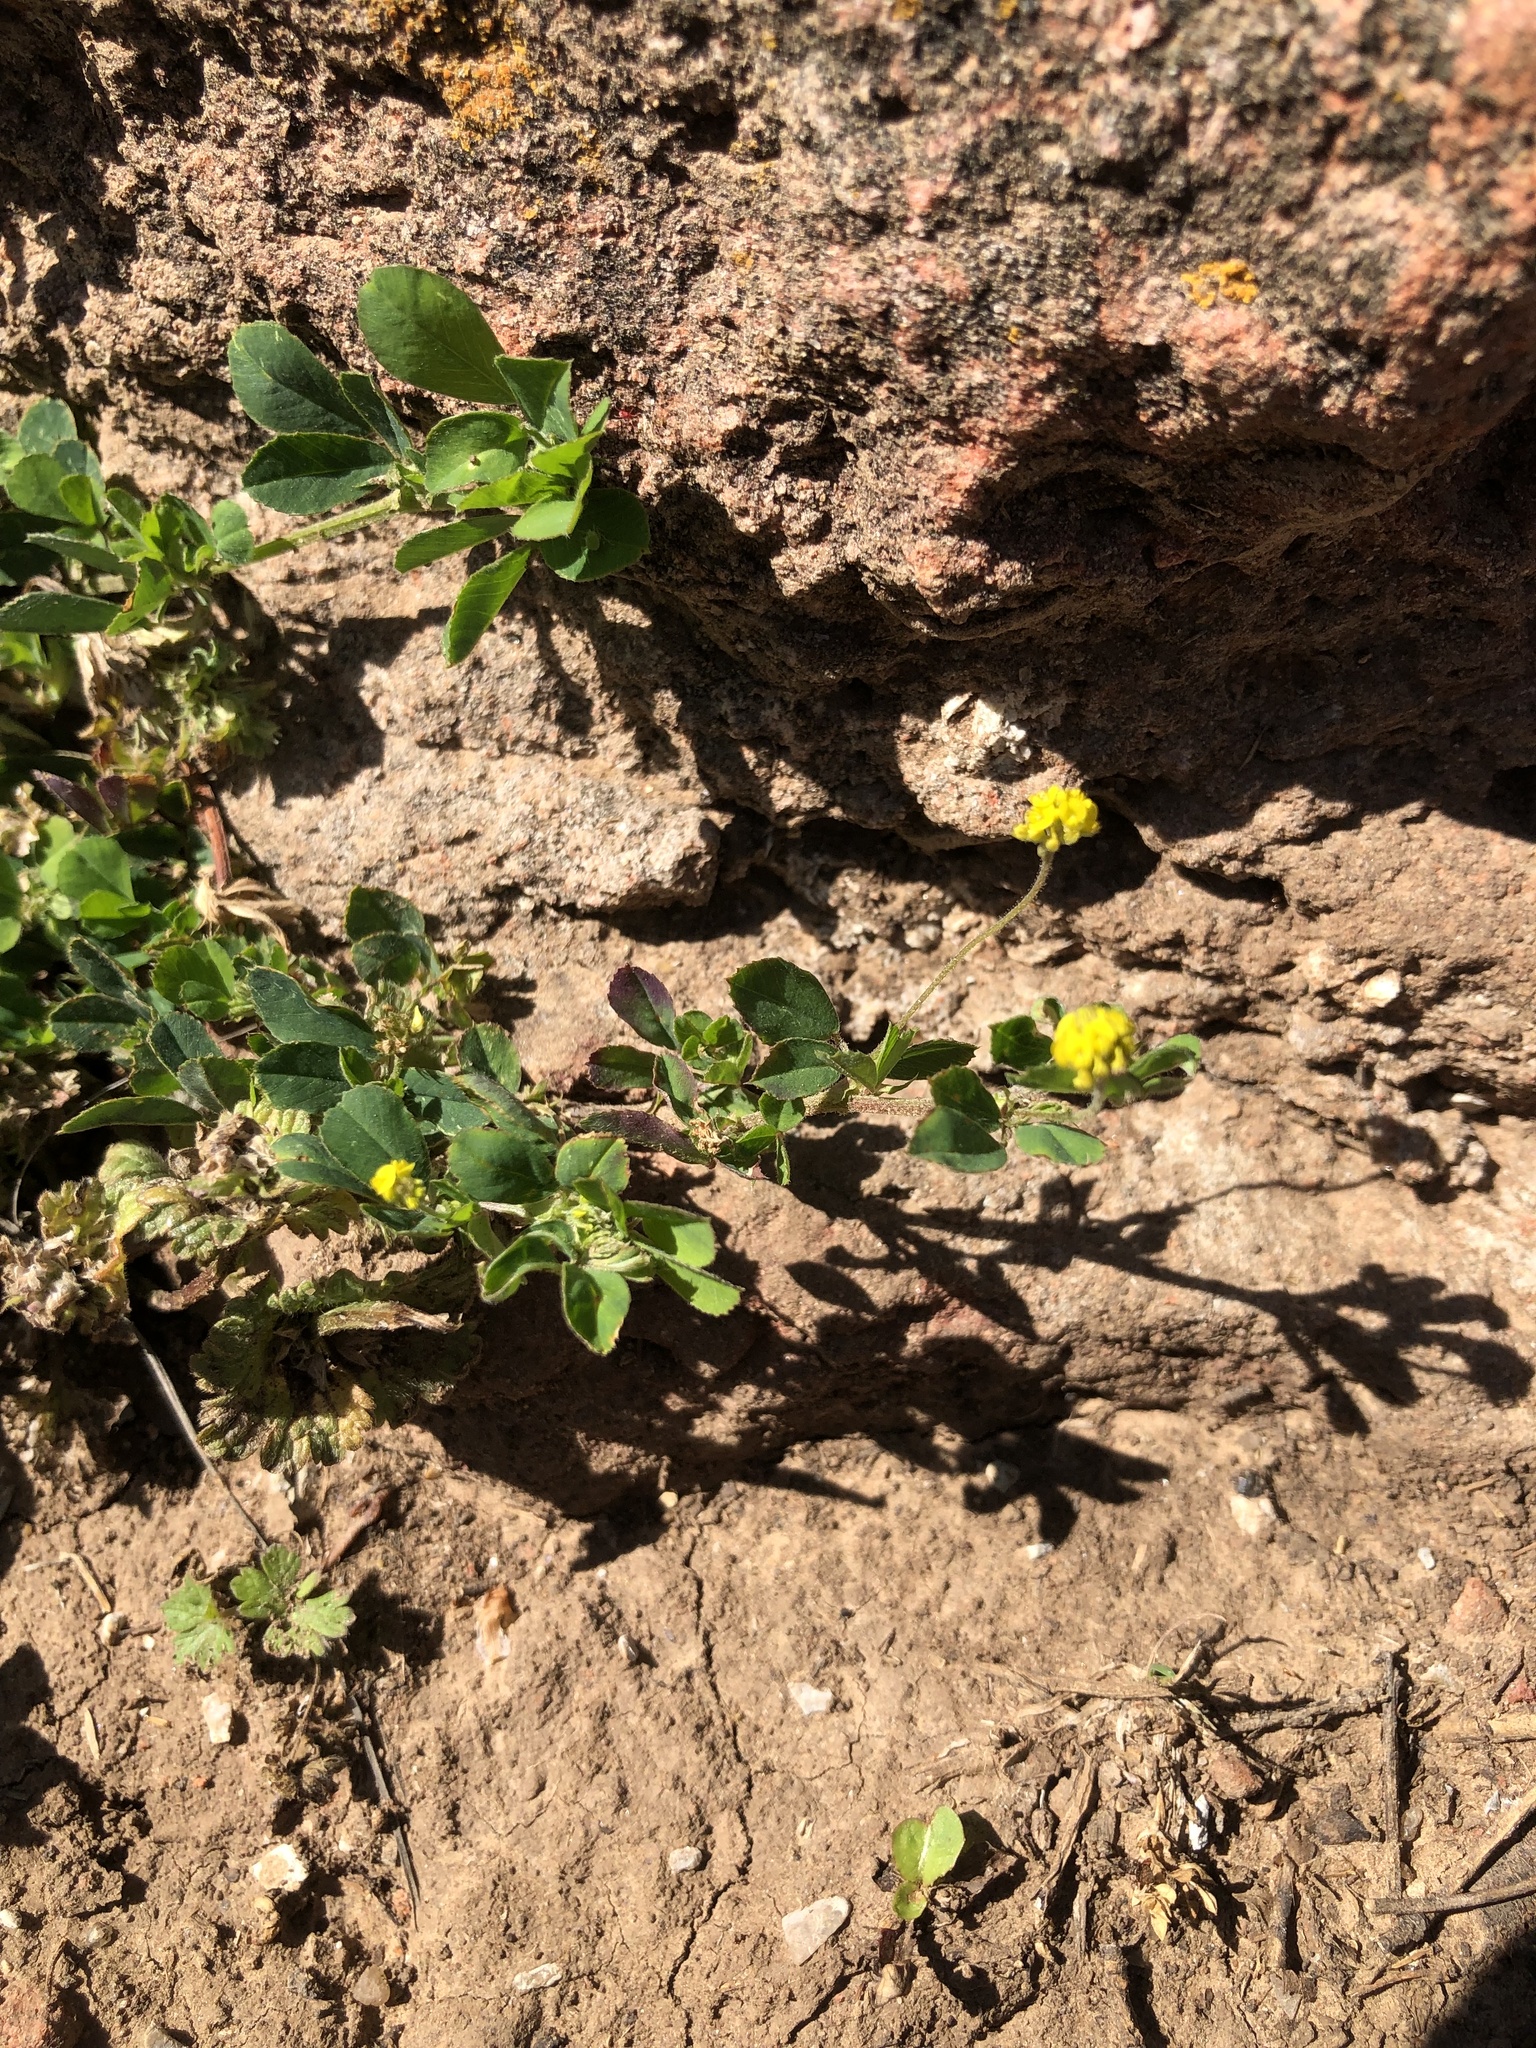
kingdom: Plantae
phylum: Tracheophyta
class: Magnoliopsida
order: Fabales
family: Fabaceae
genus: Medicago
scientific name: Medicago lupulina
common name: Black medick
